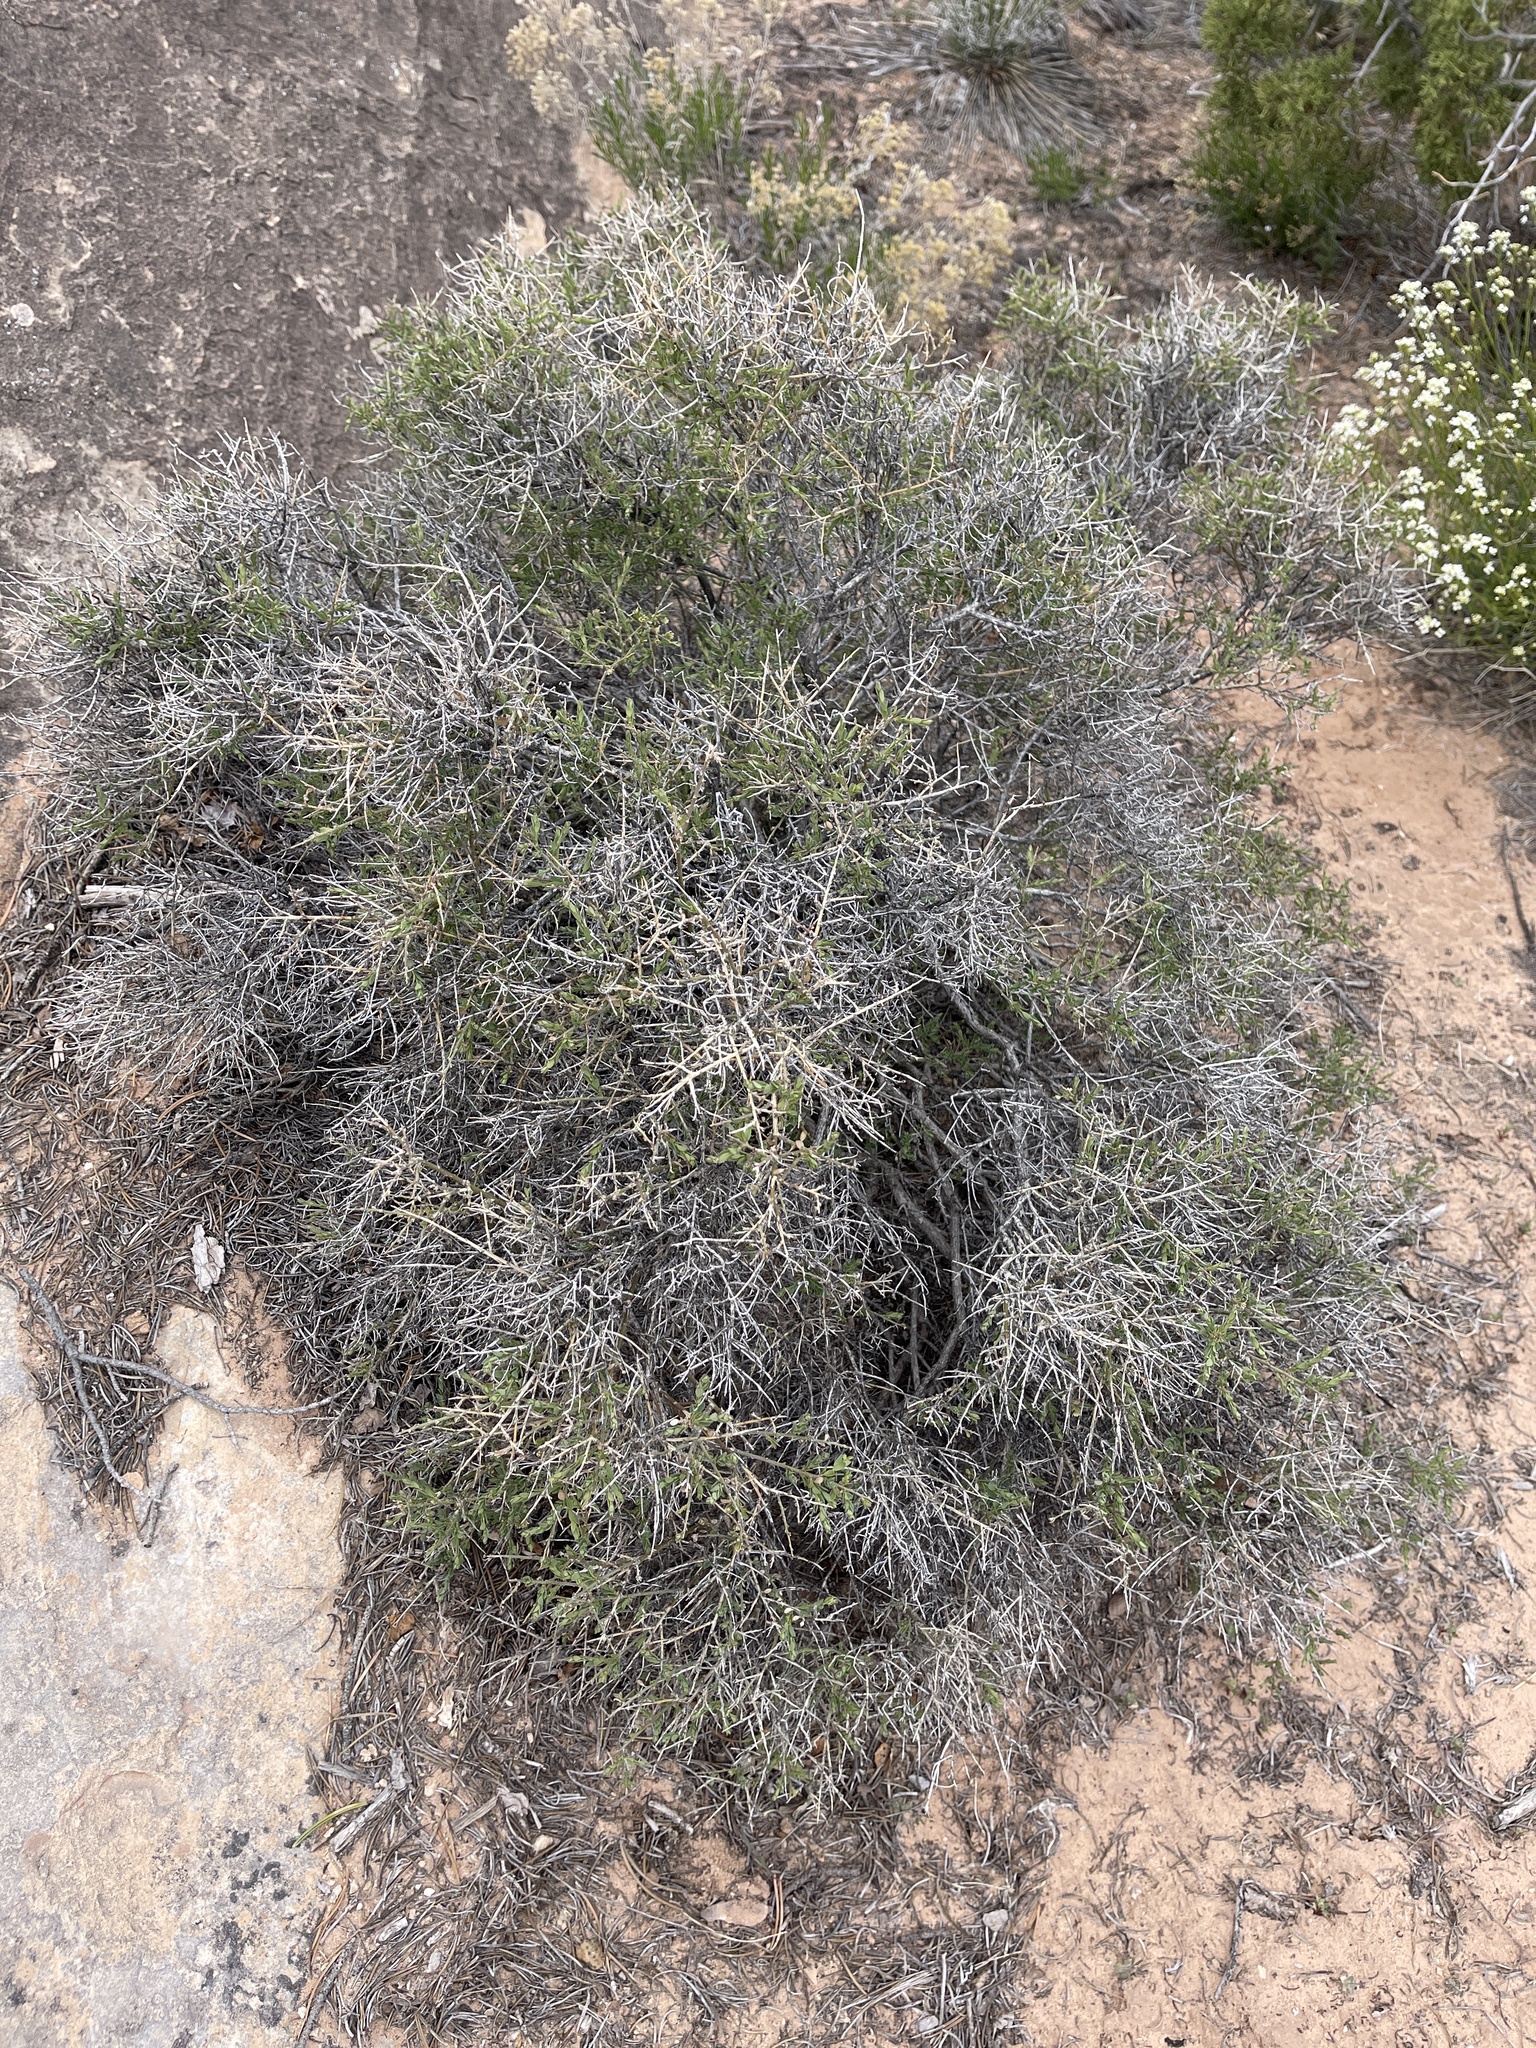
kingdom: Plantae
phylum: Tracheophyta
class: Magnoliopsida
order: Crossosomatales
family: Crossosomataceae
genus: Glossopetalon
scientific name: Glossopetalon spinescens
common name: Spring greasebush
